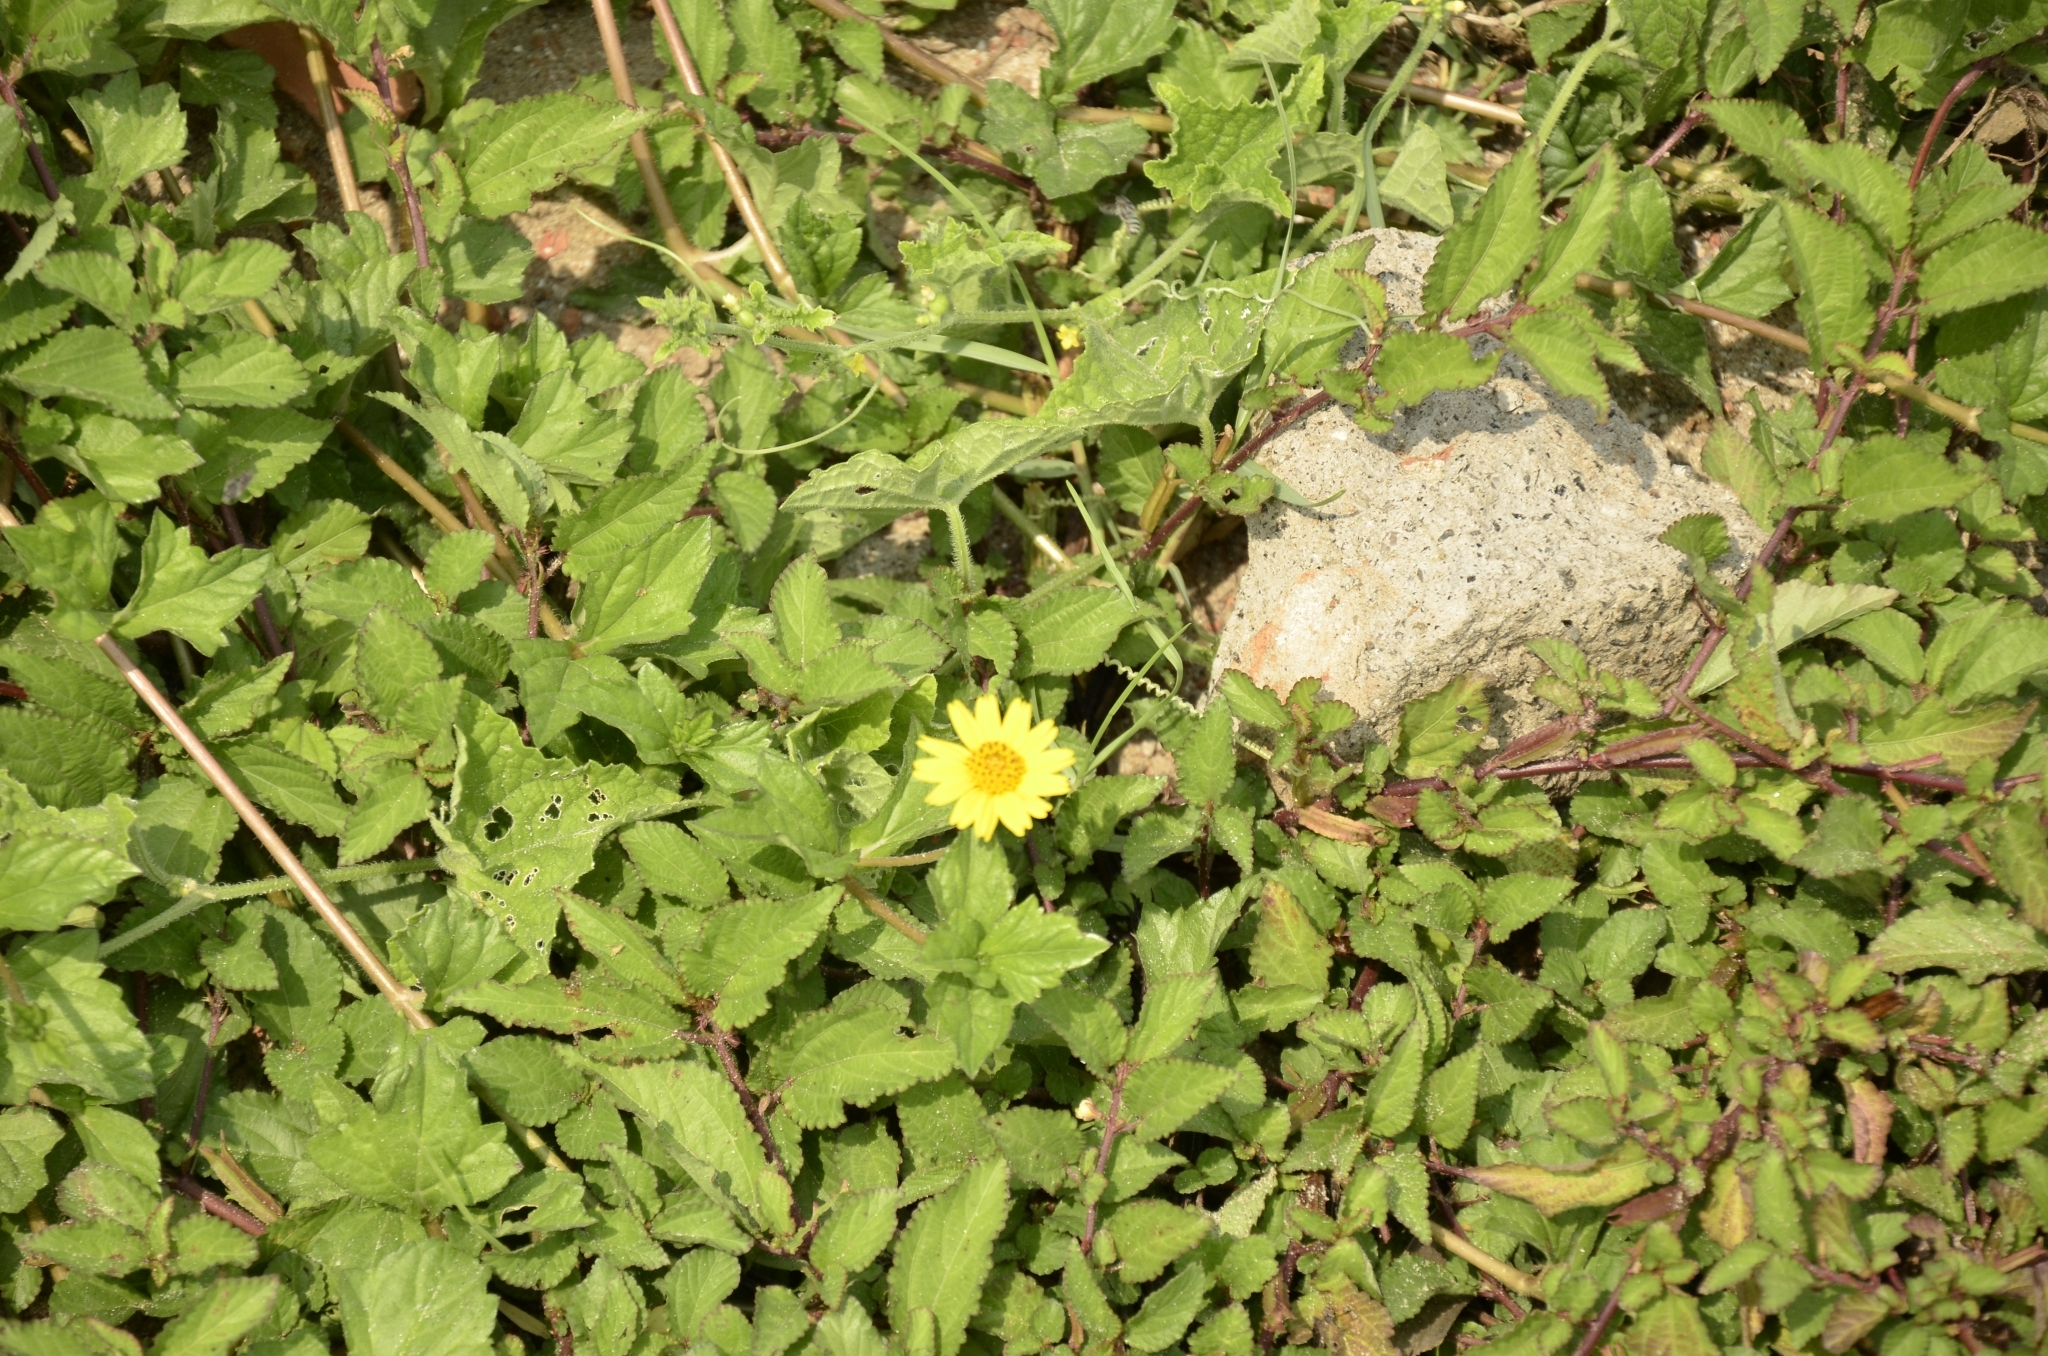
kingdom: Plantae
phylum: Tracheophyta
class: Magnoliopsida
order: Asterales
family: Asteraceae
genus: Sphagneticola
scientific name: Sphagneticola trilobata
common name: Bay biscayne creeping-oxeye
